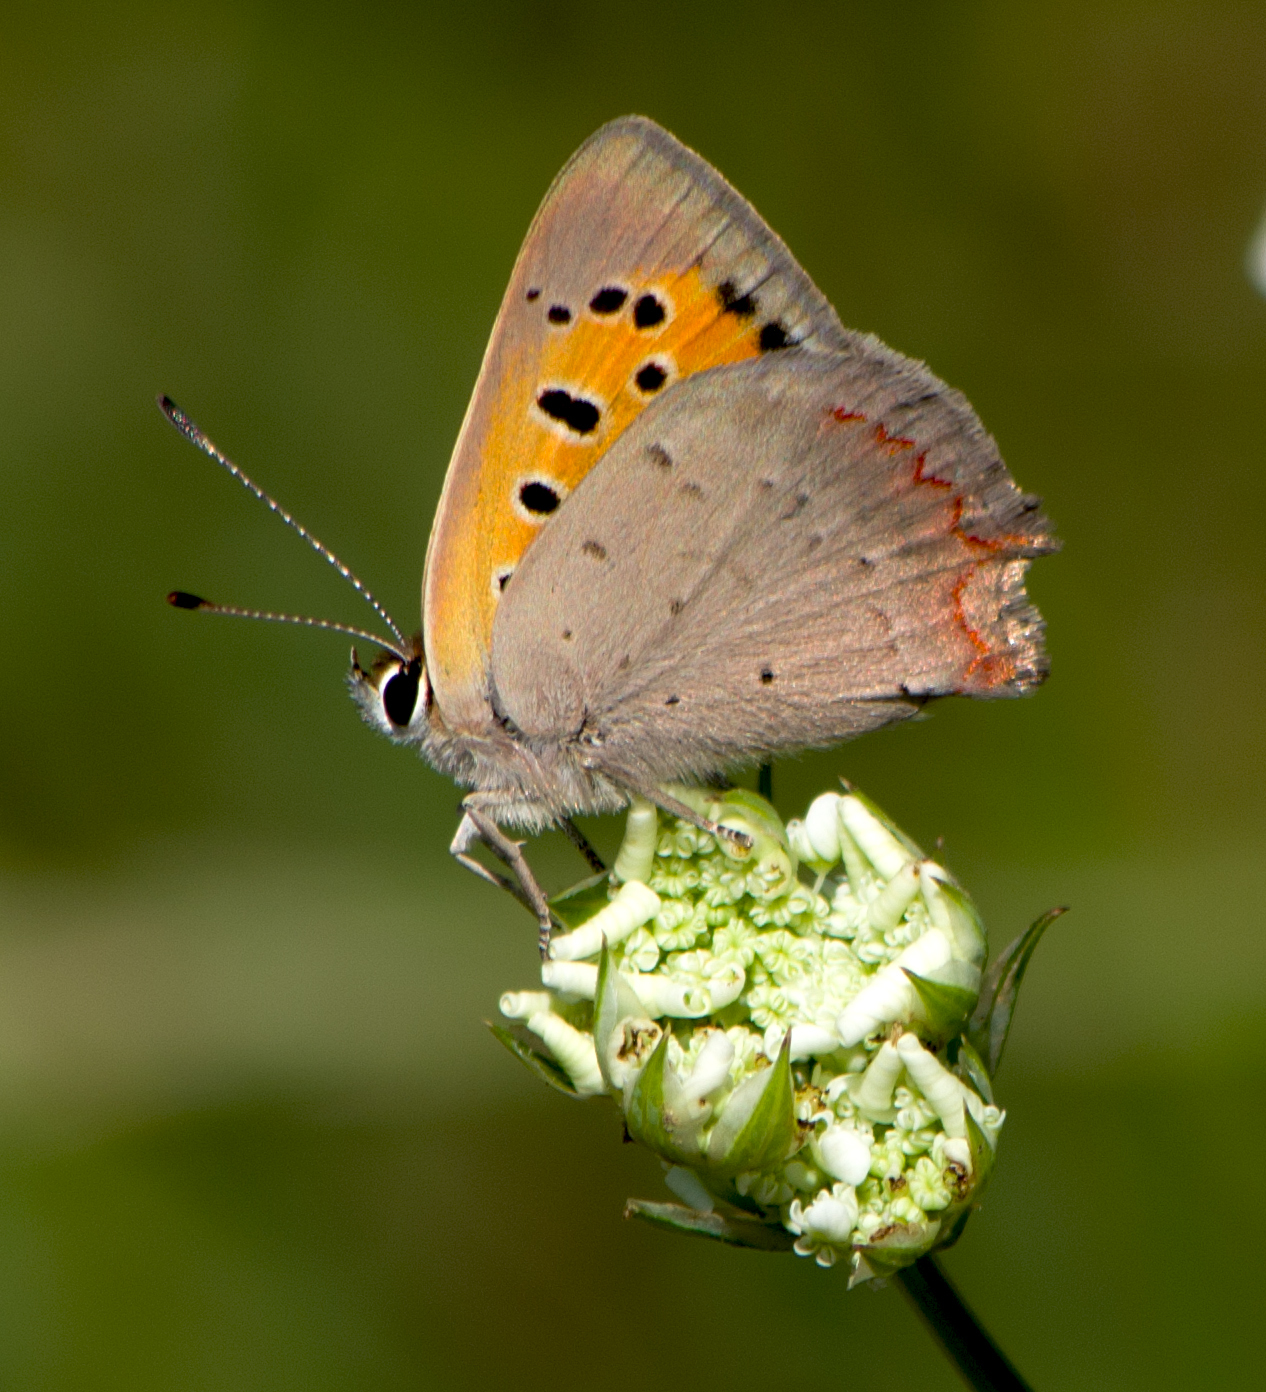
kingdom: Animalia
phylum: Arthropoda
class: Insecta
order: Lepidoptera
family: Lycaenidae
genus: Lycaena
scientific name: Lycaena phlaeas
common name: Small copper
